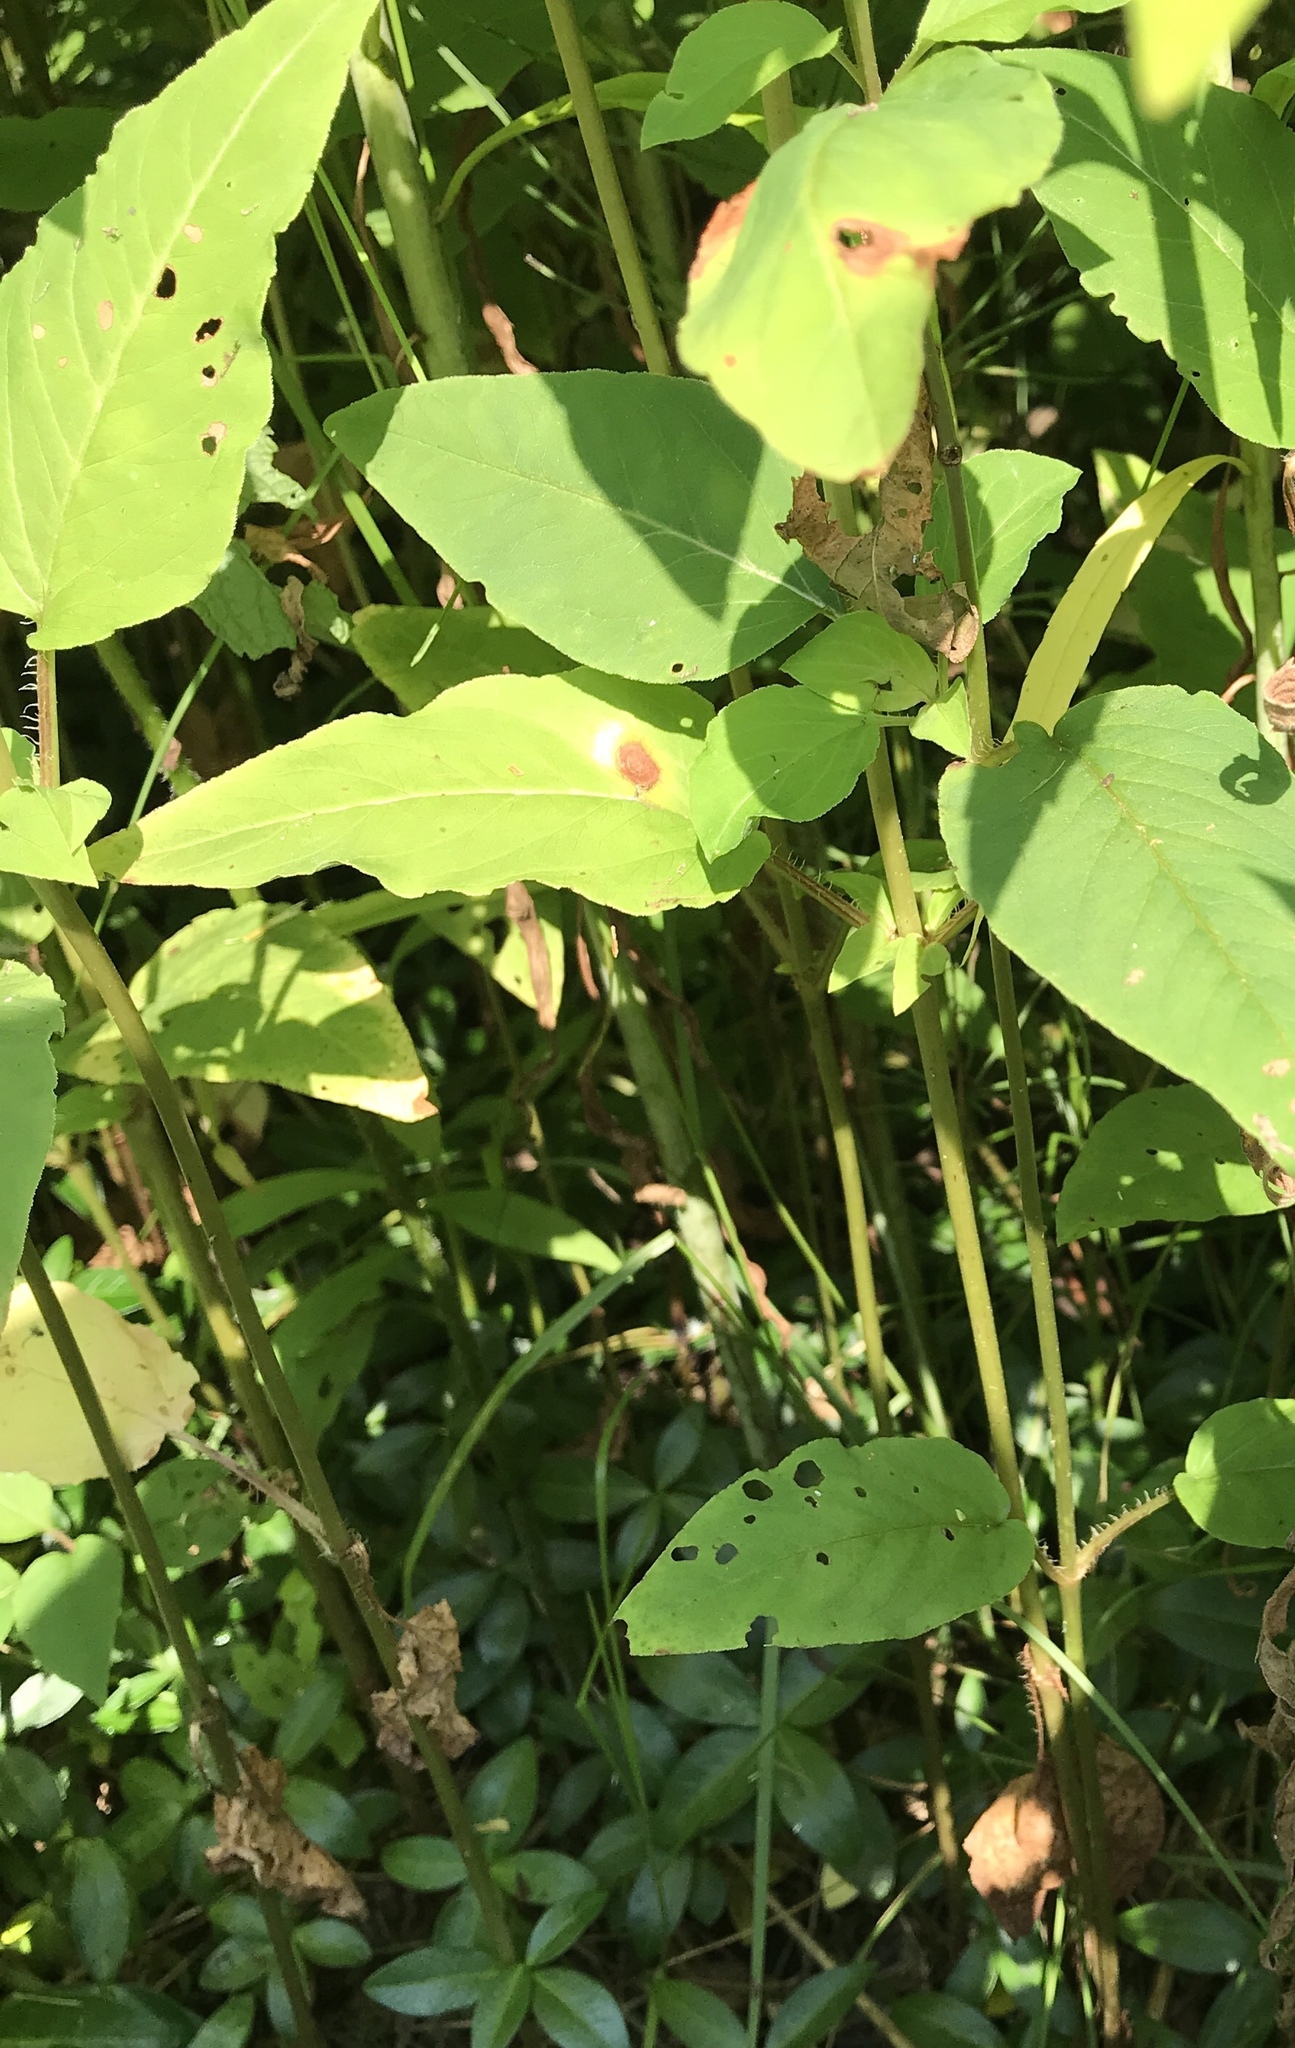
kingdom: Plantae
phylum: Tracheophyta
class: Magnoliopsida
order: Ericales
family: Primulaceae
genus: Lysimachia
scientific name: Lysimachia ciliata
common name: Fringed loosestrife
